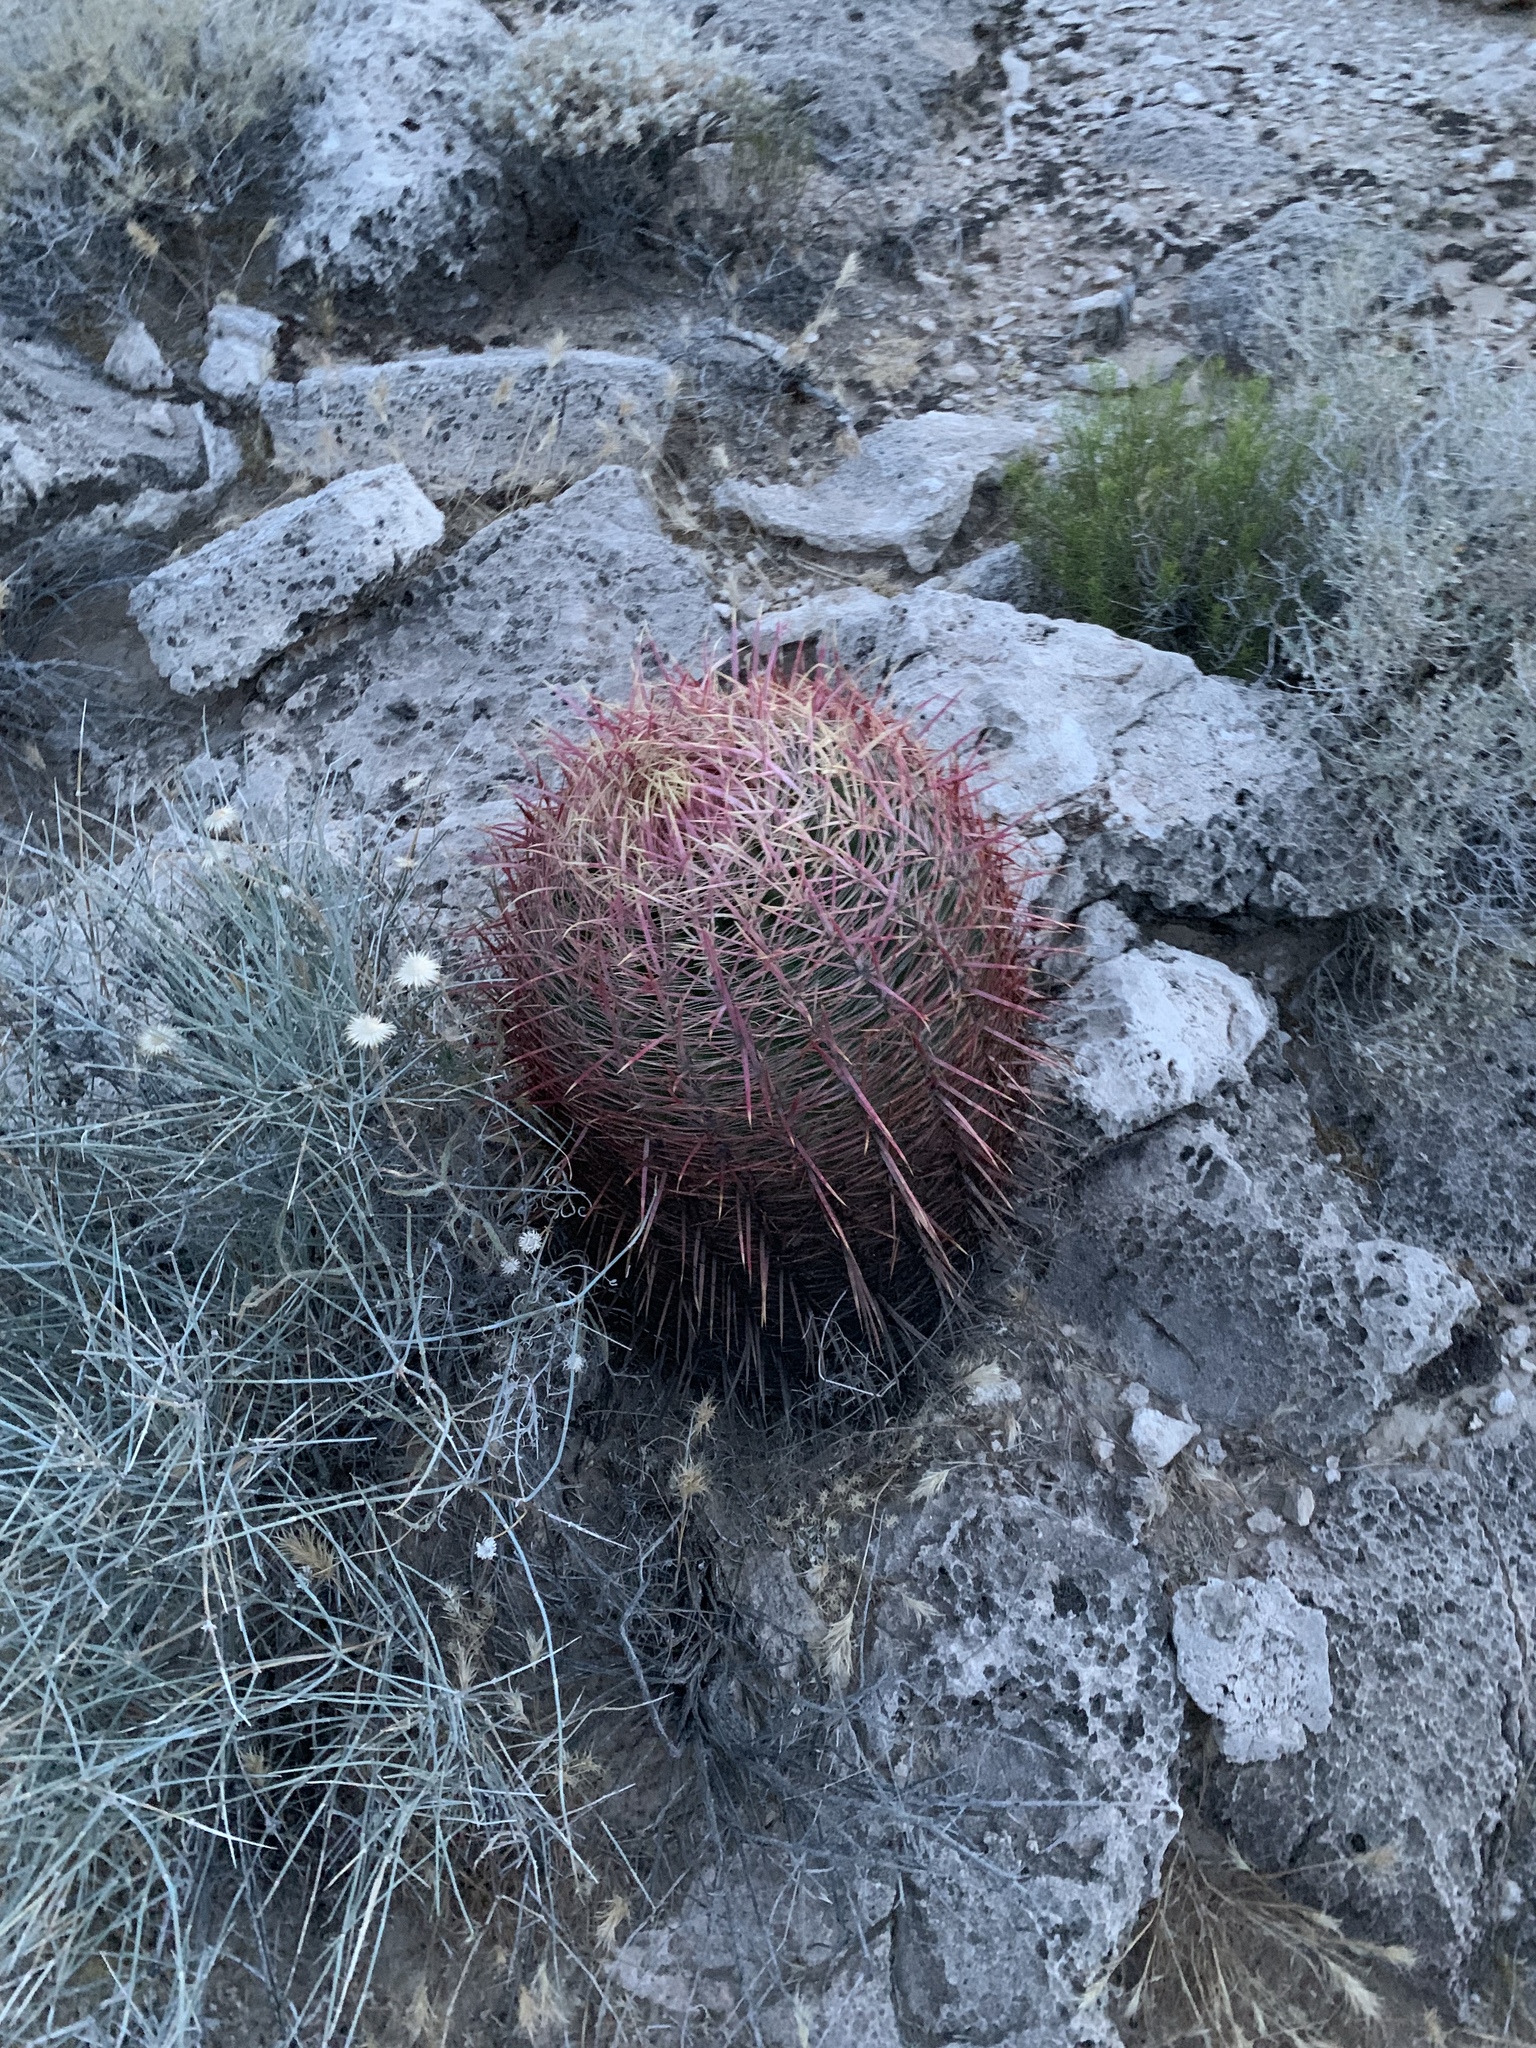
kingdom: Plantae
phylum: Tracheophyta
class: Magnoliopsida
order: Caryophyllales
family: Cactaceae
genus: Ferocactus
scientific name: Ferocactus cylindraceus
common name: California barrel cactus
